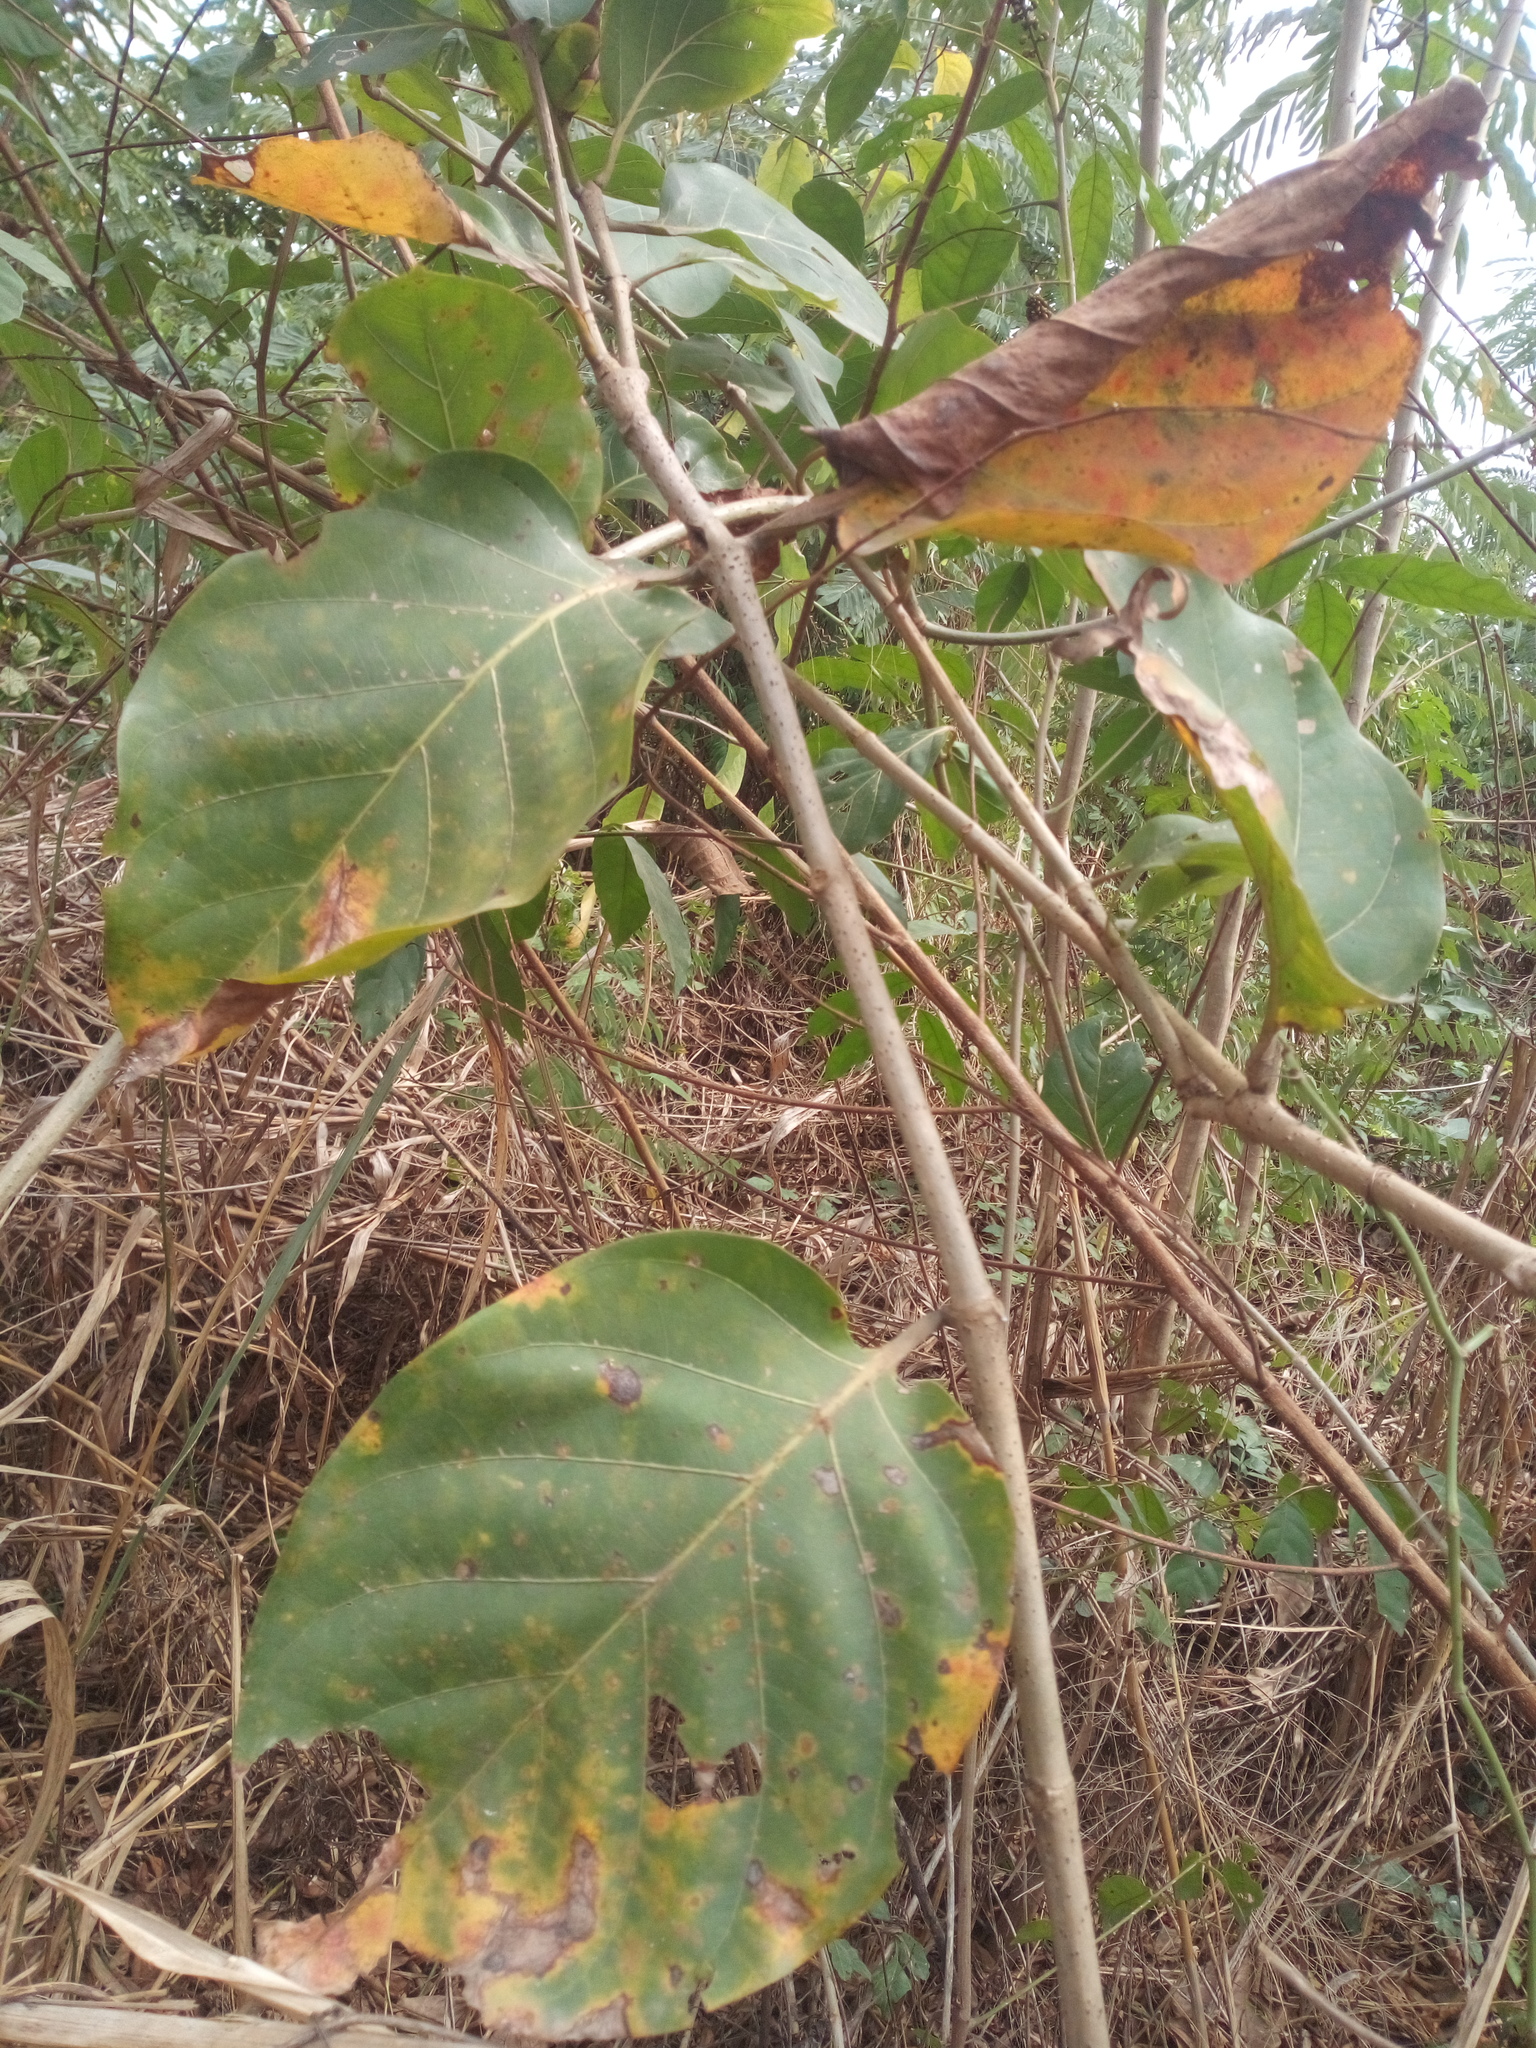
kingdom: Plantae
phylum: Tracheophyta
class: Magnoliopsida
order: Gentianales
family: Rubiaceae
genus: Nauclea
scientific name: Nauclea latifolia
